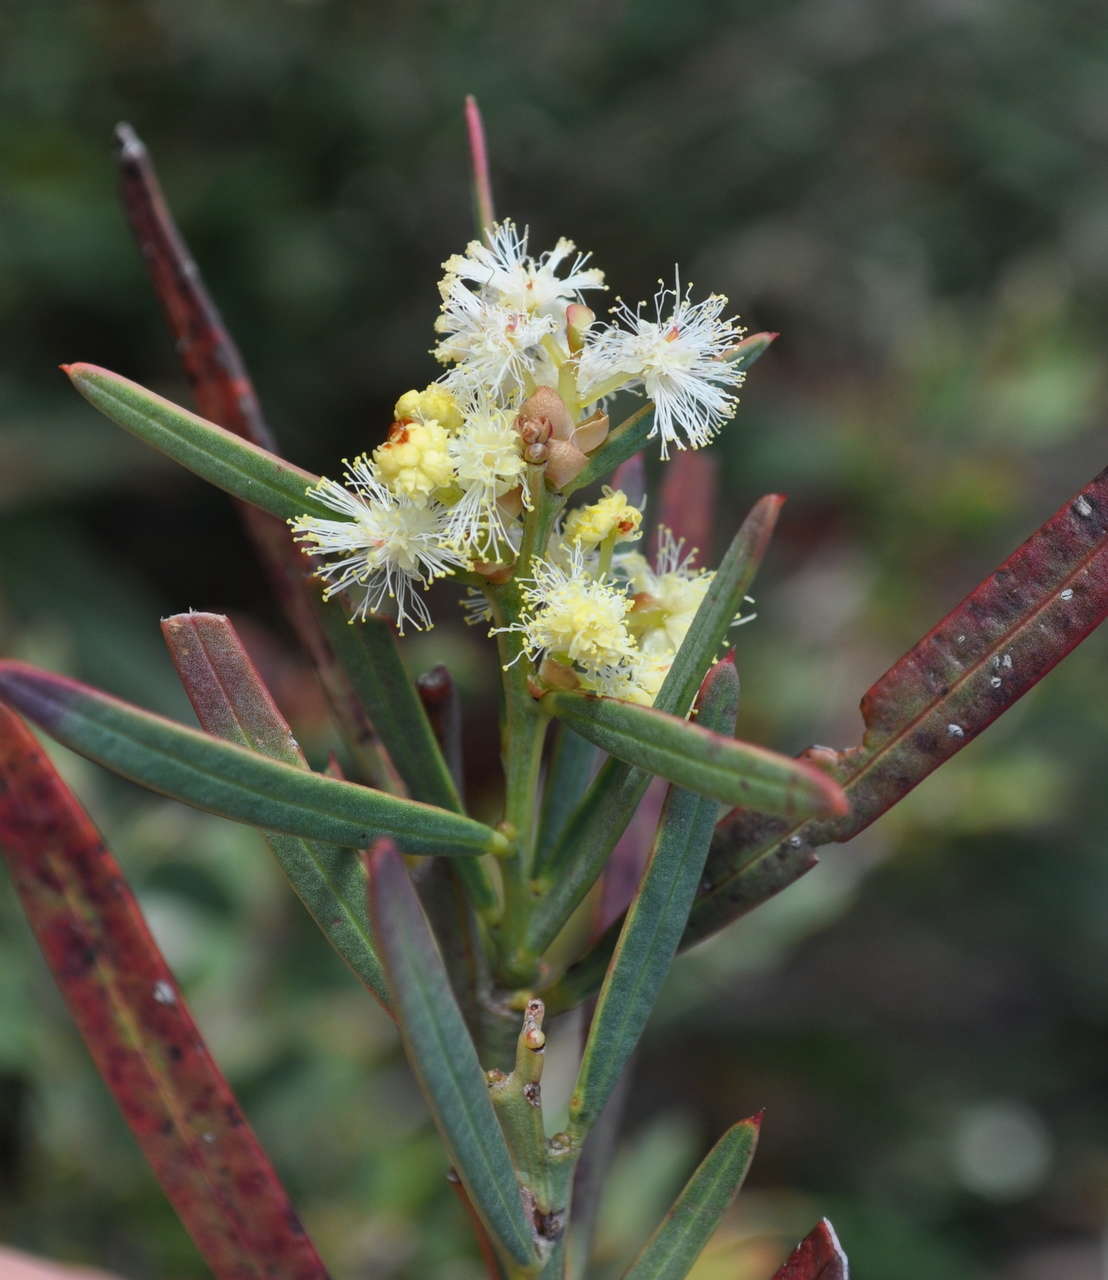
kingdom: Plantae
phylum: Tracheophyta
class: Magnoliopsida
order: Fabales
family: Fabaceae
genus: Acacia
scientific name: Acacia suaveolens
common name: Sweet acacia
